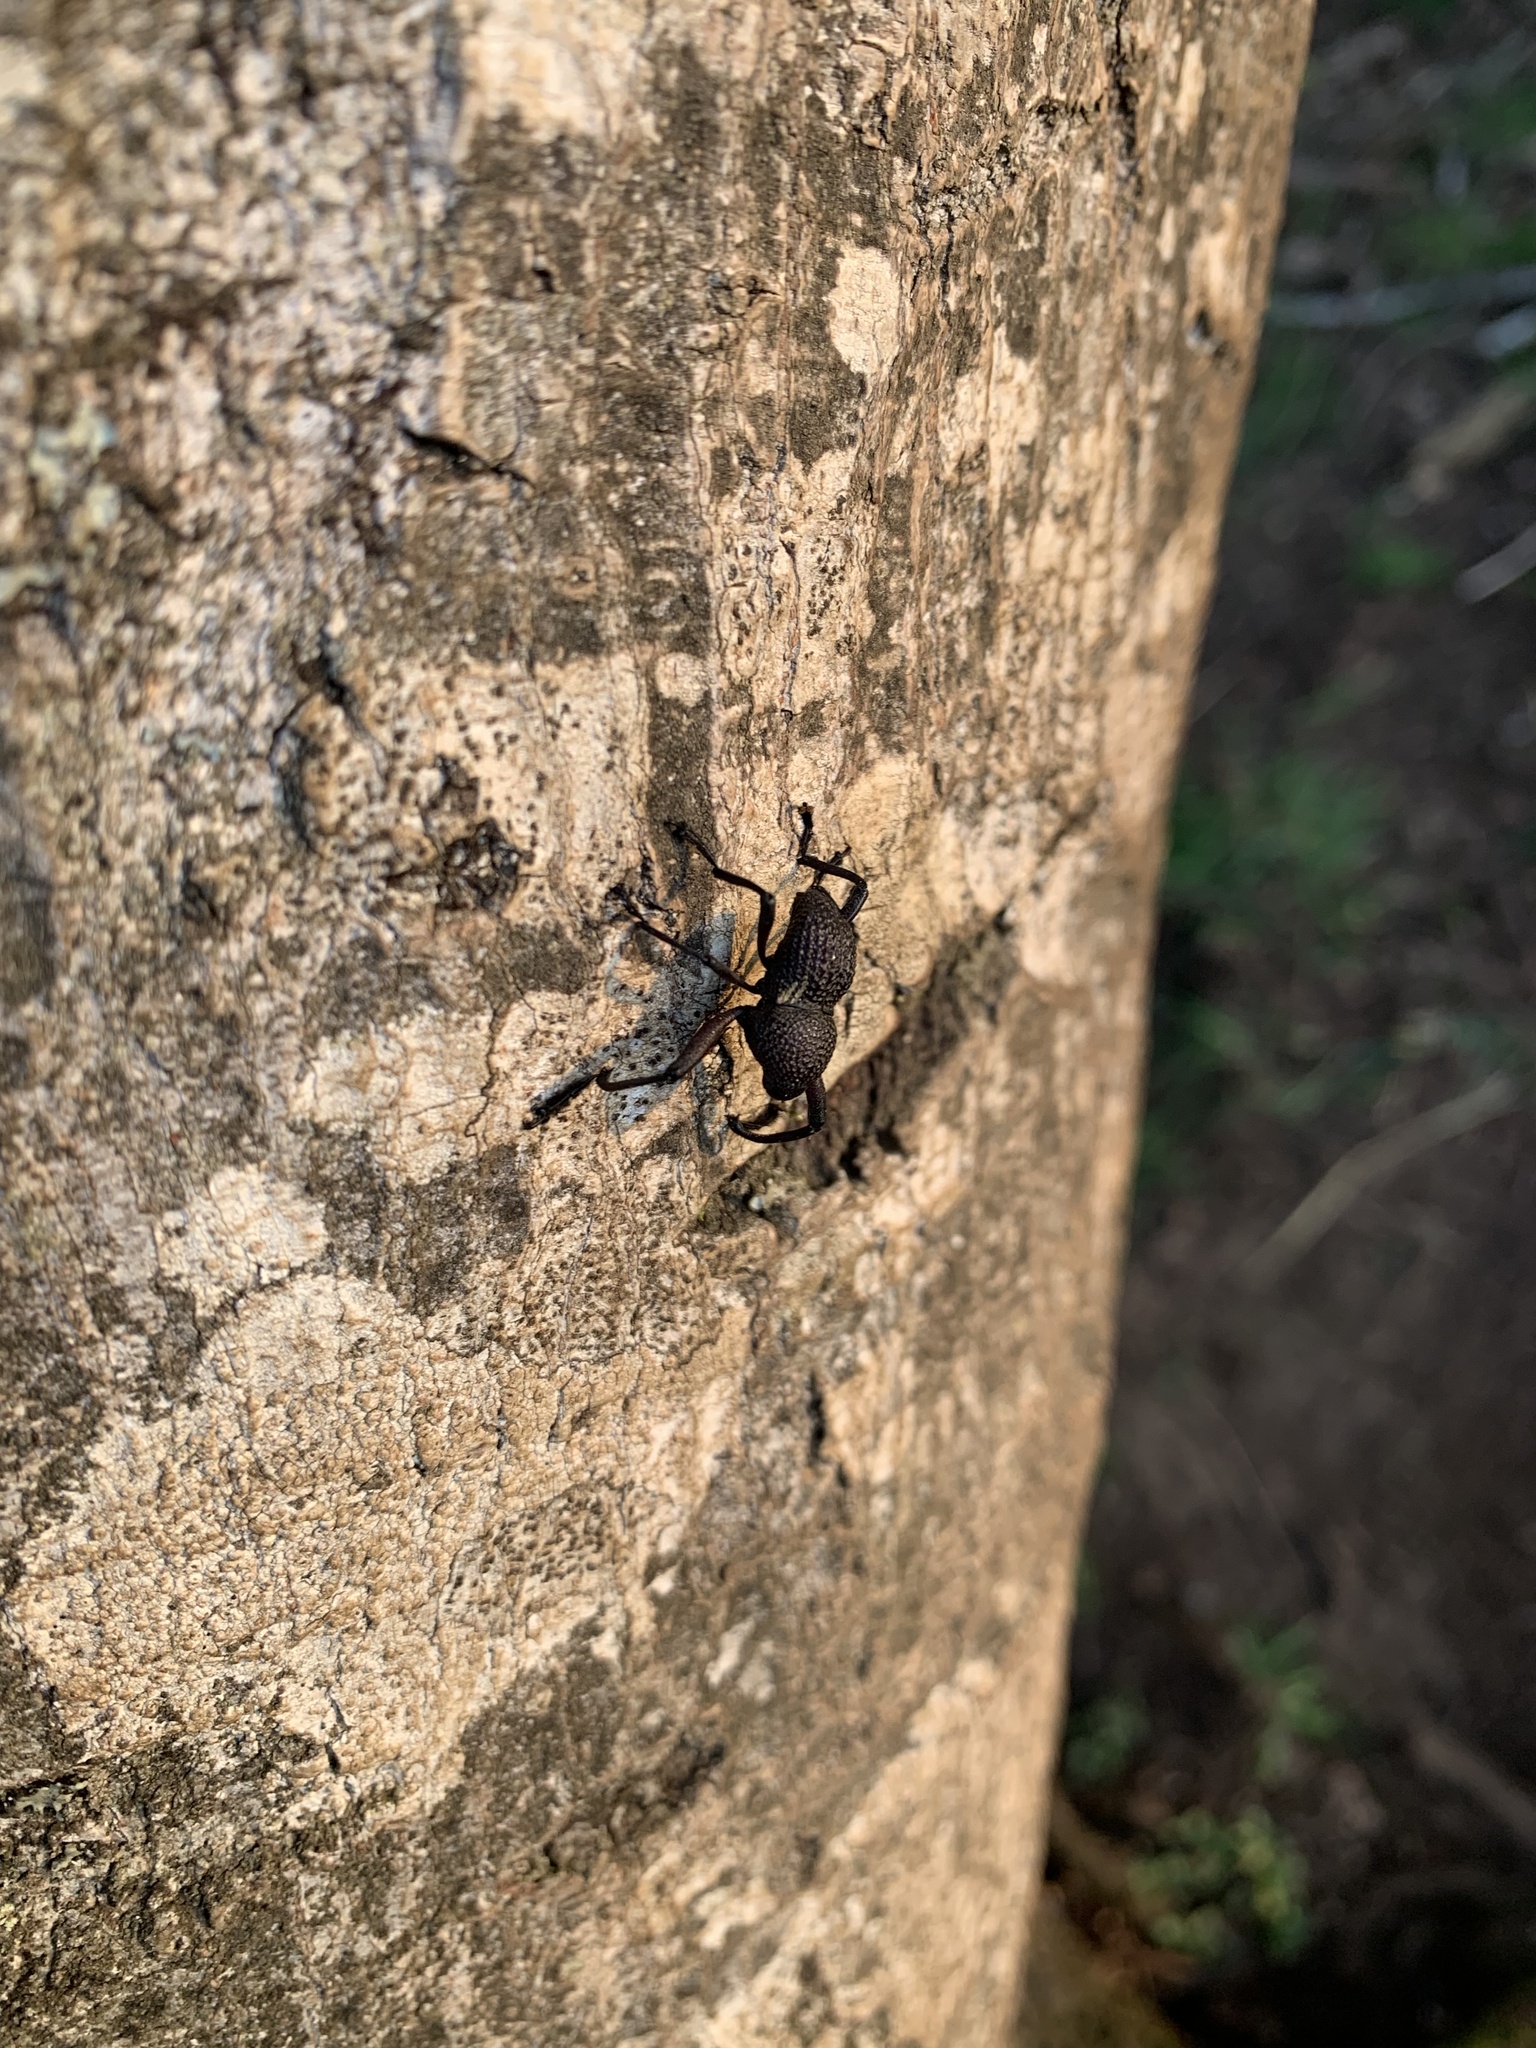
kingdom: Animalia
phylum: Arthropoda
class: Insecta
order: Coleoptera
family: Curculionidae
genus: Rhyephenes
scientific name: Rhyephenes humeralis
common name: Araè±ita chilena del pino
